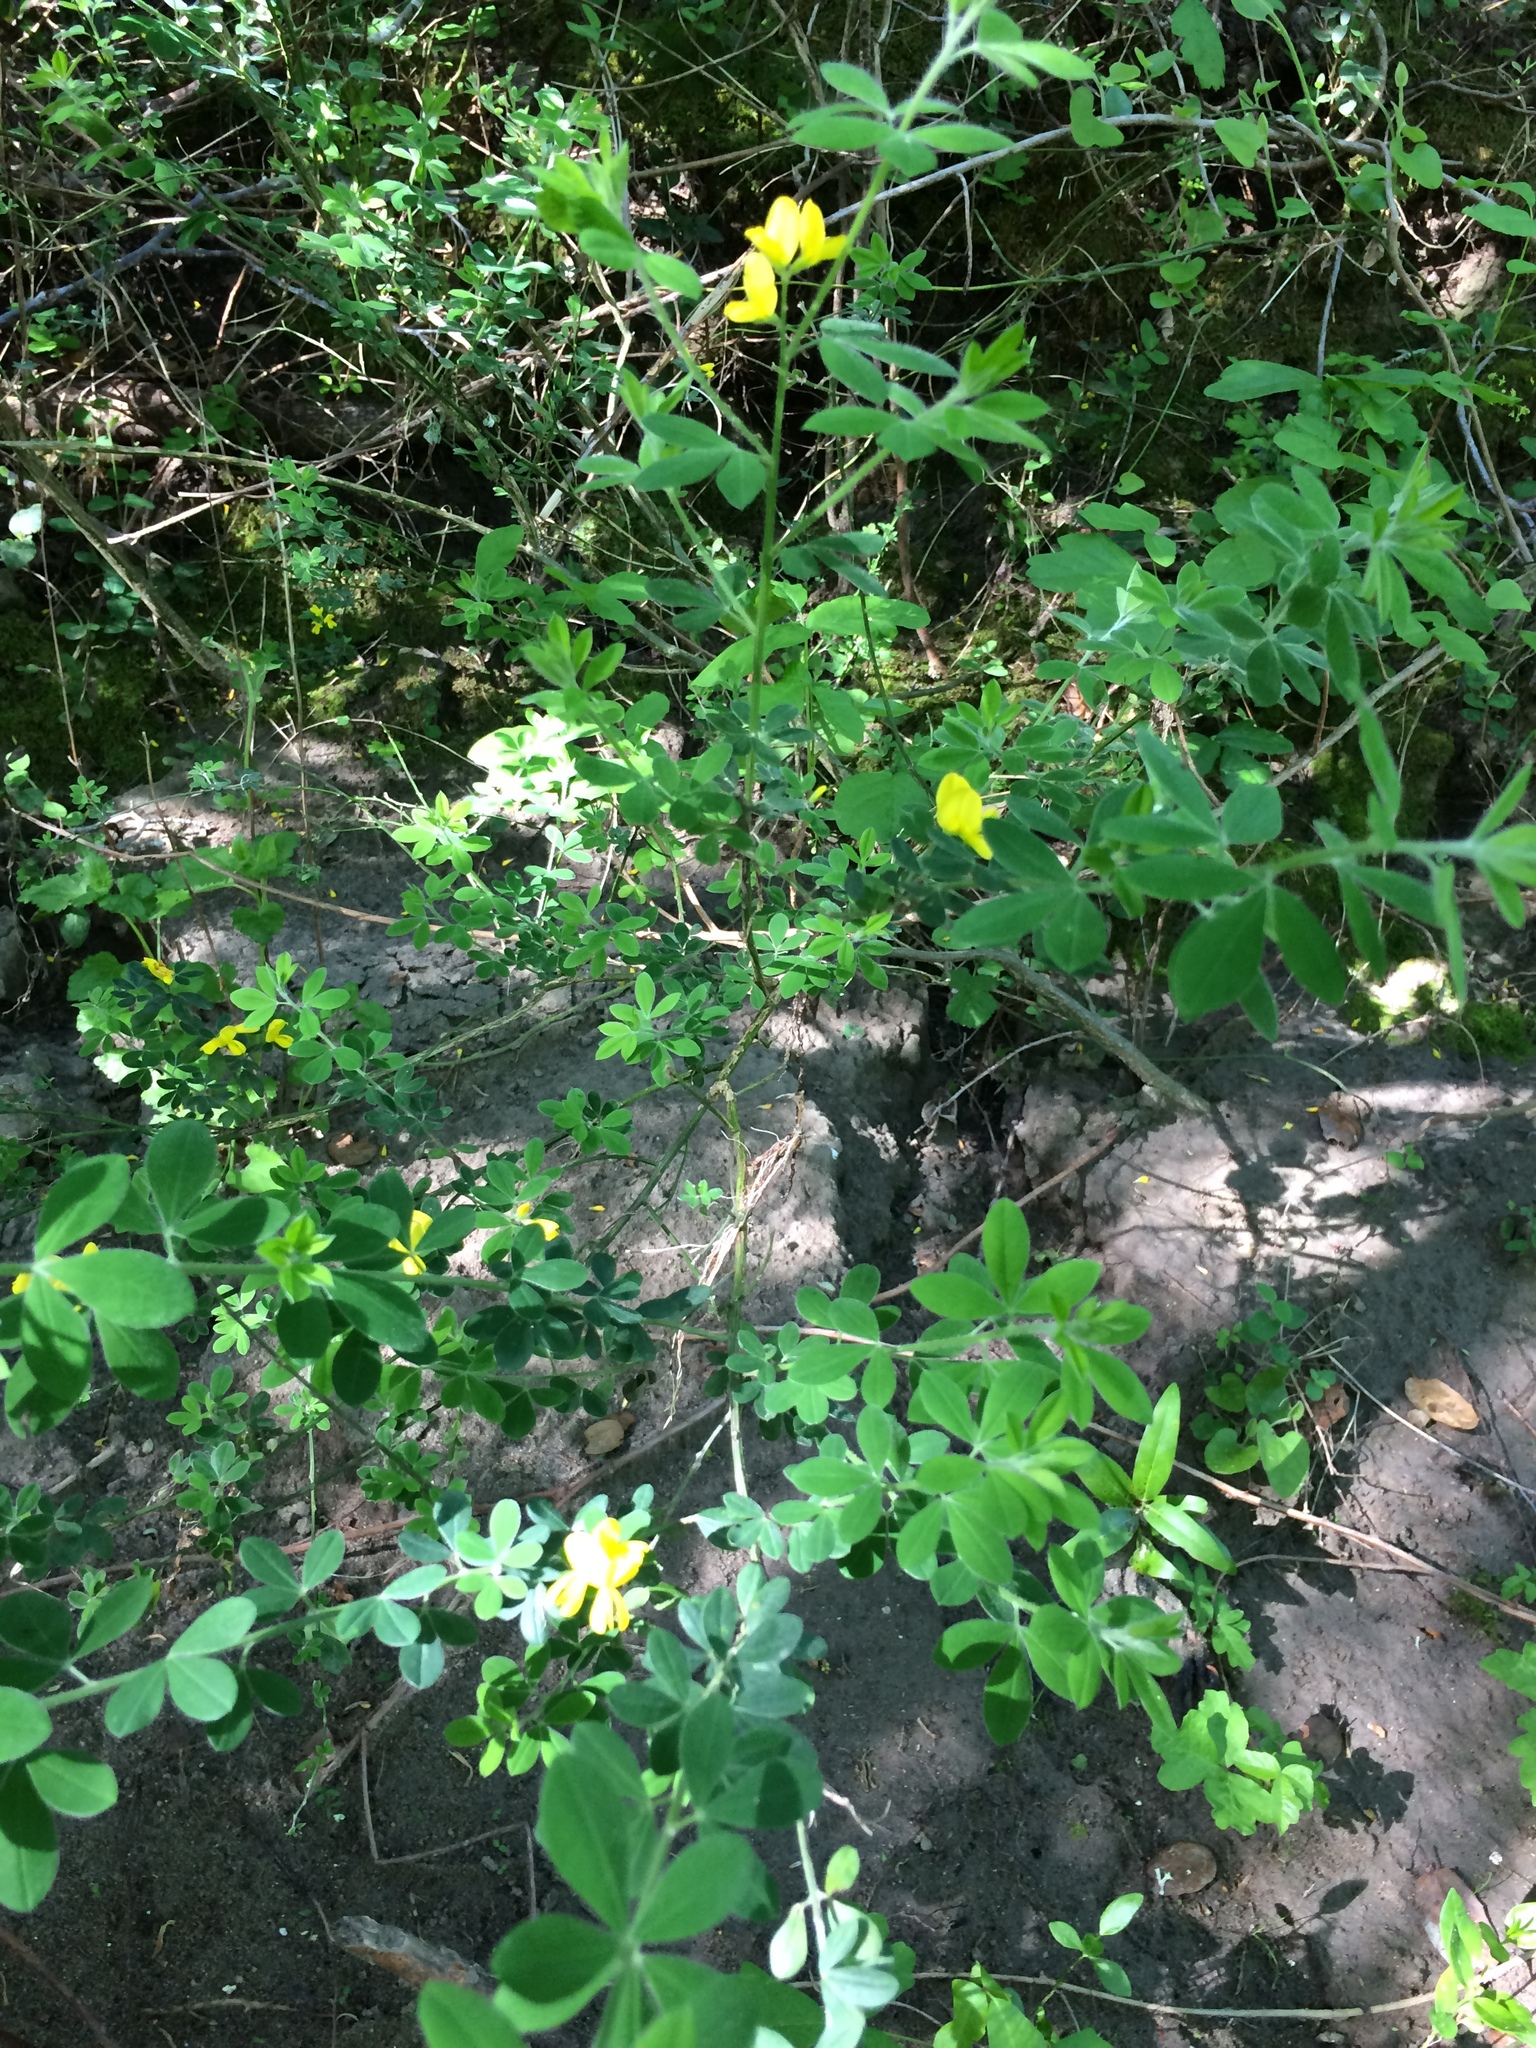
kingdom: Plantae
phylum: Tracheophyta
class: Magnoliopsida
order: Fabales
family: Fabaceae
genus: Genista
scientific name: Genista monspessulana
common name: Montpellier broom
